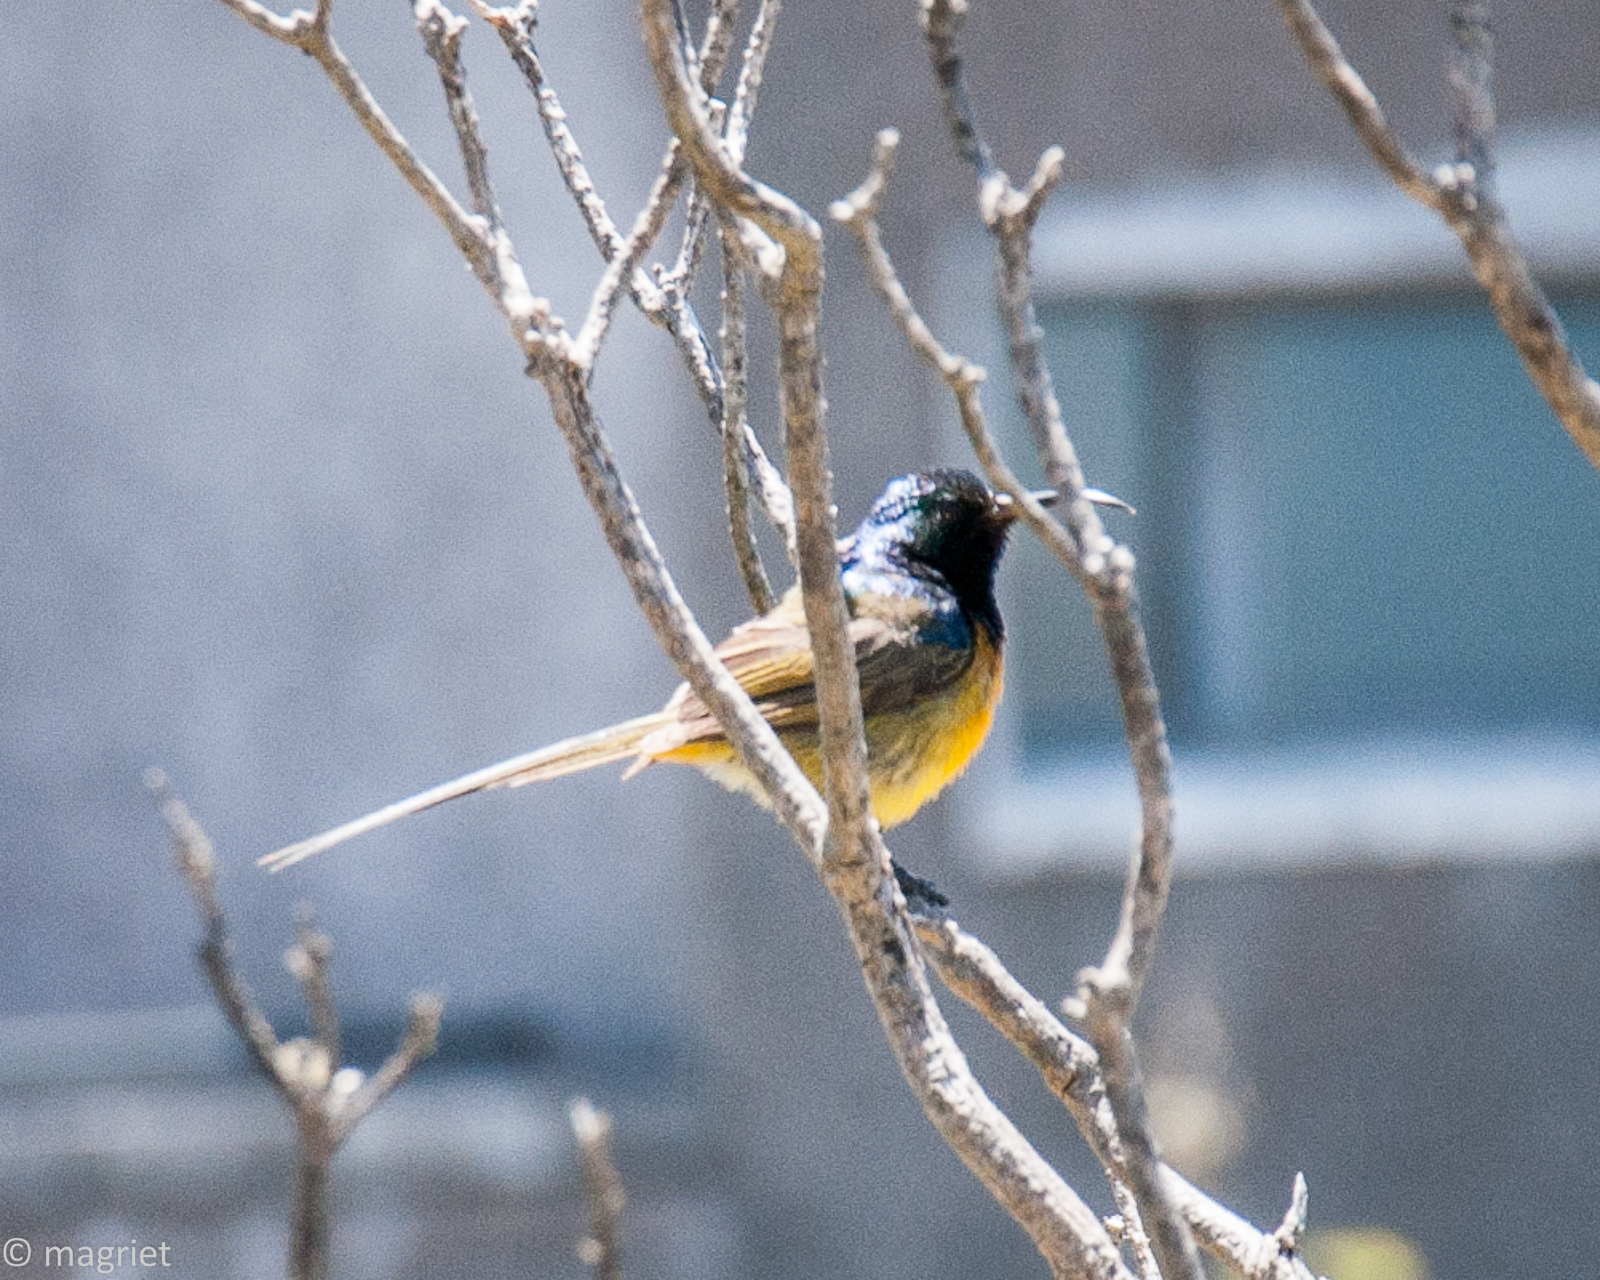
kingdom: Animalia
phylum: Chordata
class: Aves
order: Passeriformes
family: Nectariniidae
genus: Anthobaphes
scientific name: Anthobaphes violacea
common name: Orange-breasted sunbird
